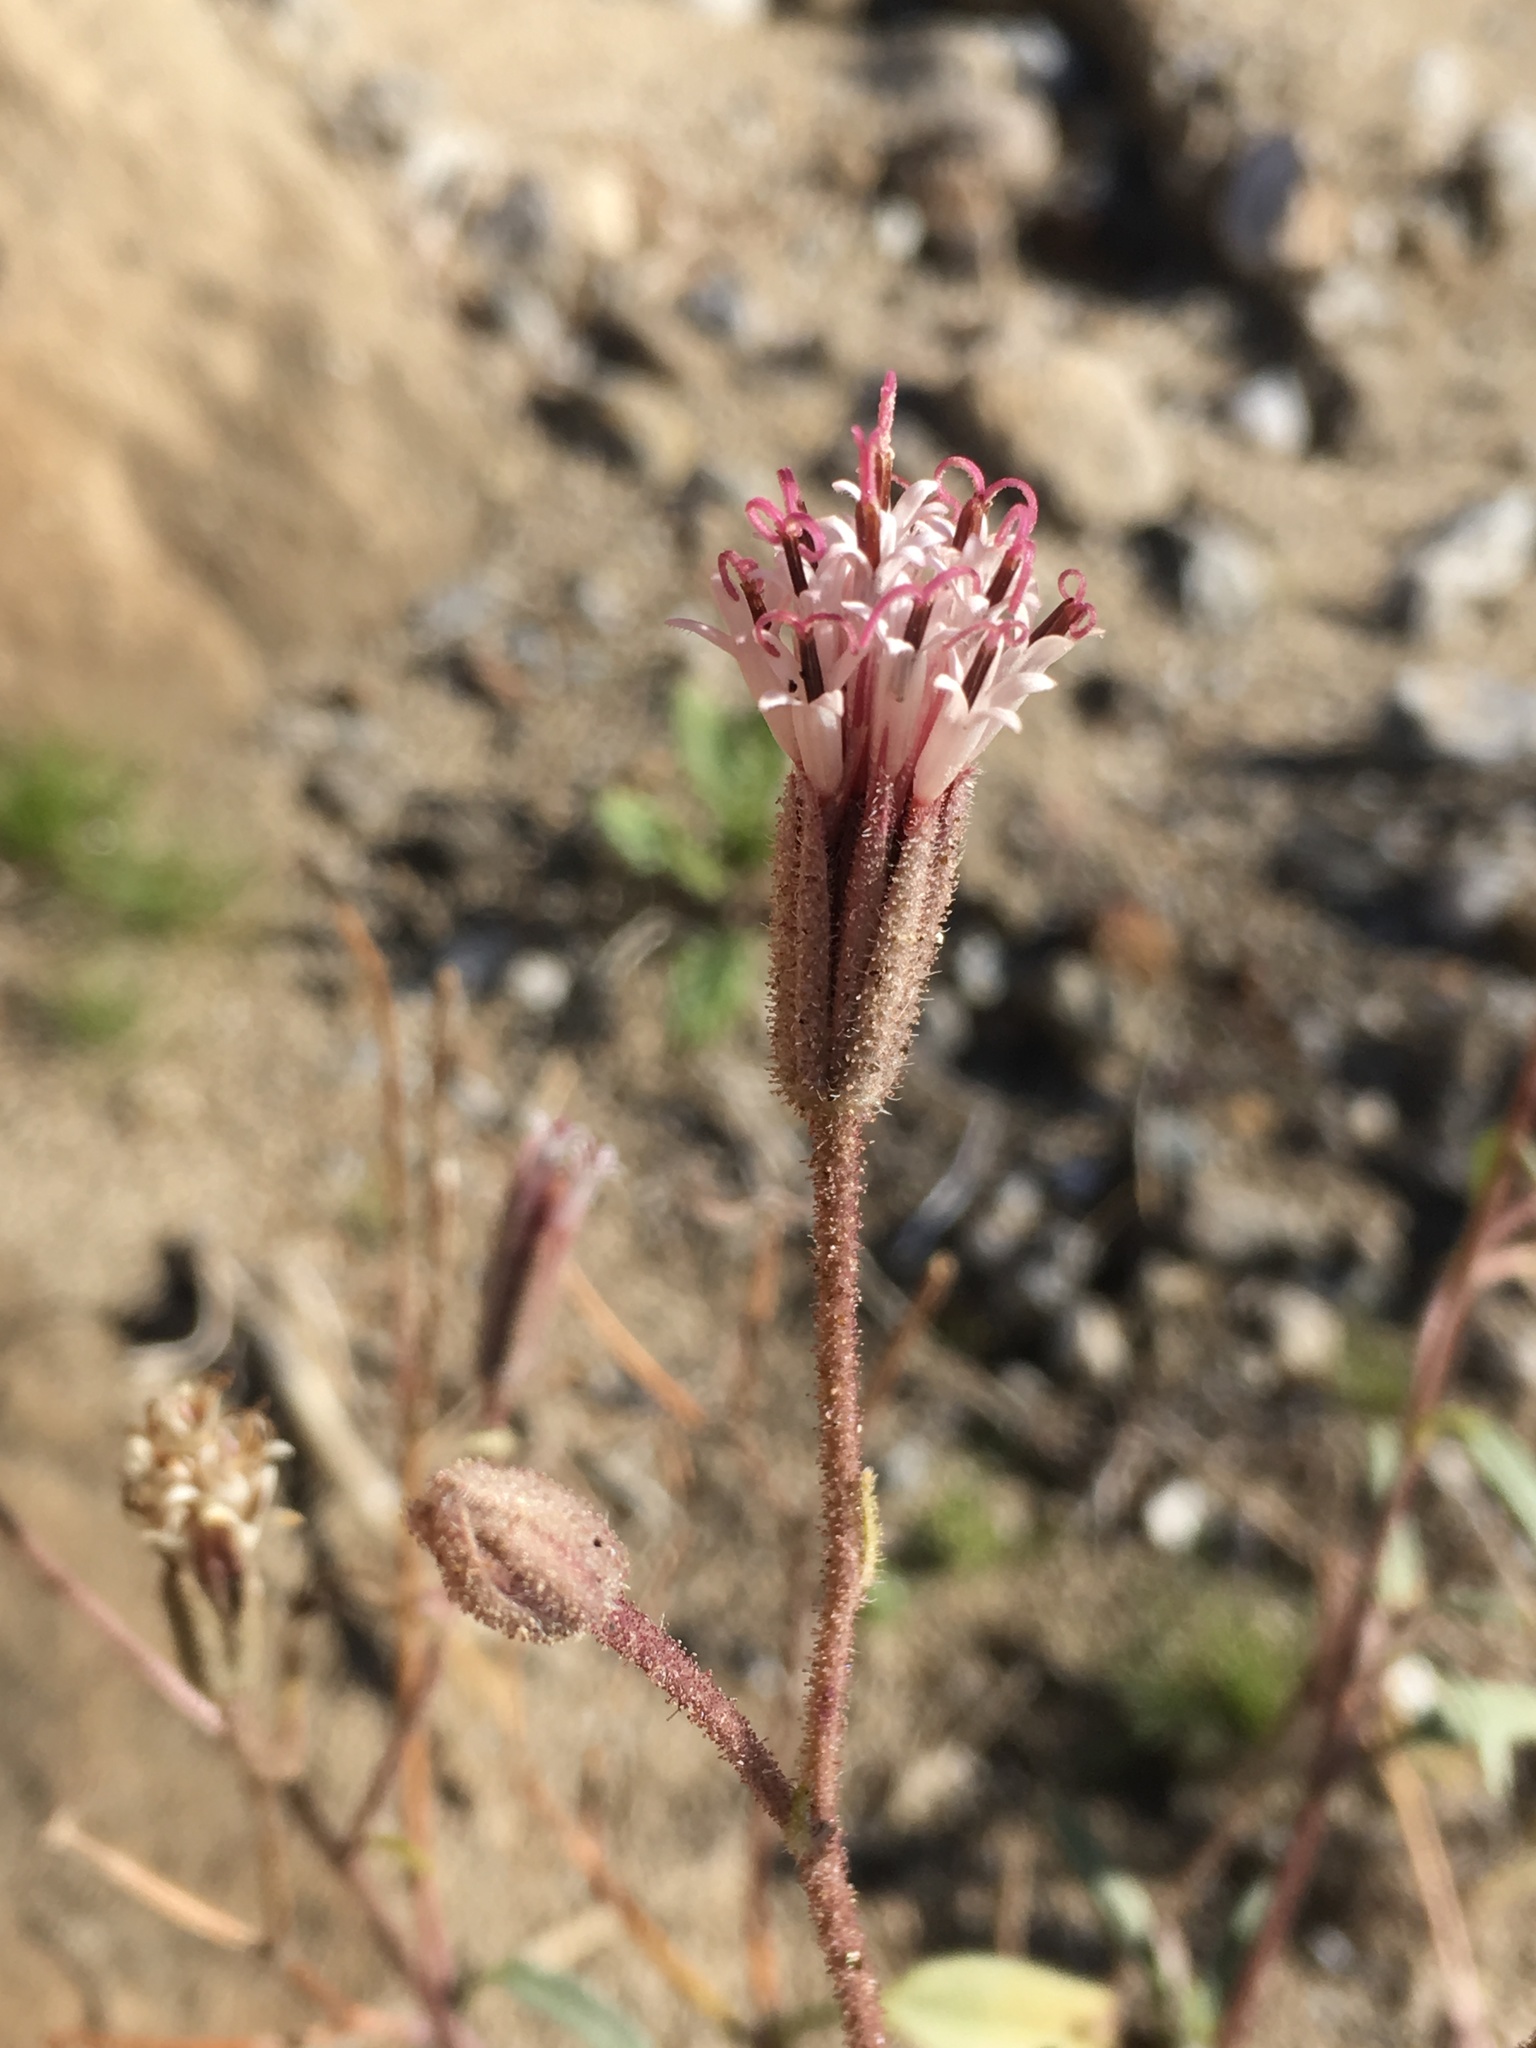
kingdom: Plantae
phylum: Tracheophyta
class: Magnoliopsida
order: Asterales
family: Asteraceae
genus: Palafoxia
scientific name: Palafoxia arida
